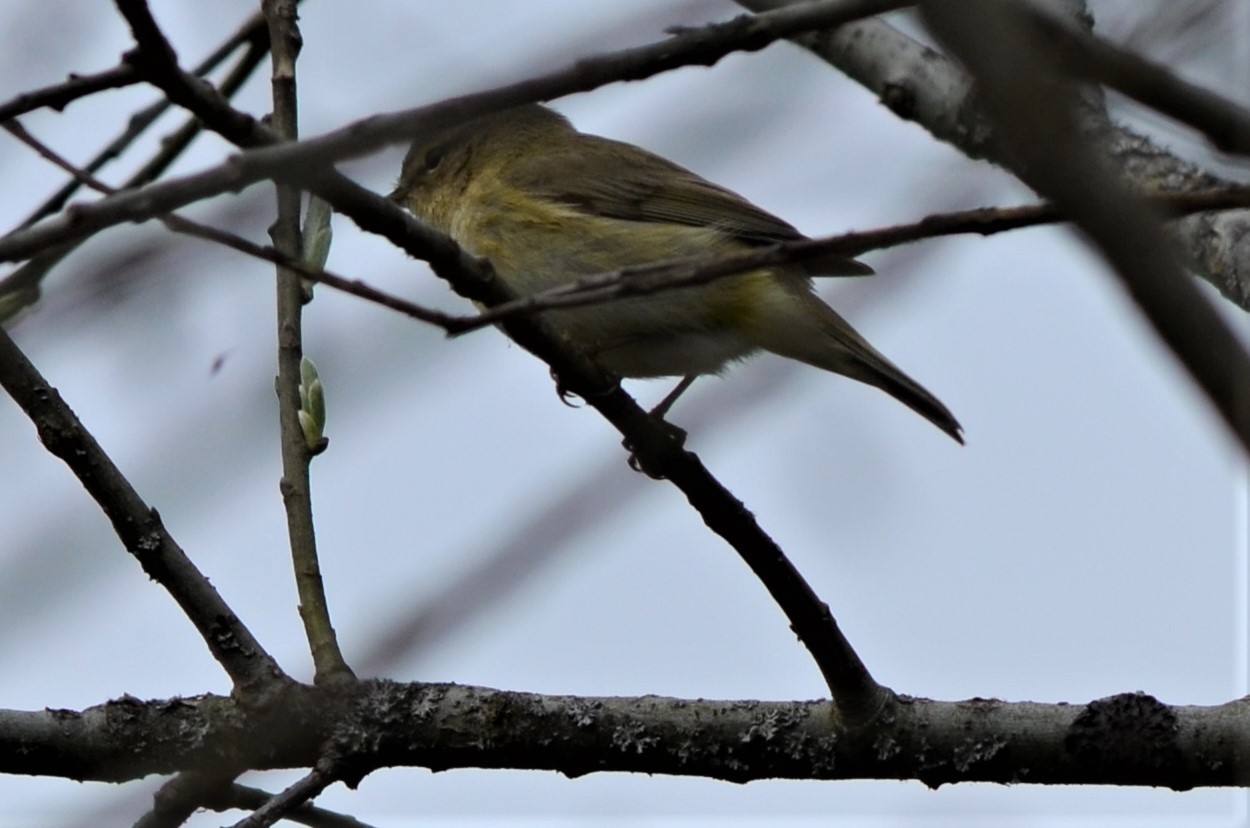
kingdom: Animalia
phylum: Chordata
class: Aves
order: Passeriformes
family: Phylloscopidae
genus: Phylloscopus
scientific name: Phylloscopus collybita
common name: Common chiffchaff
